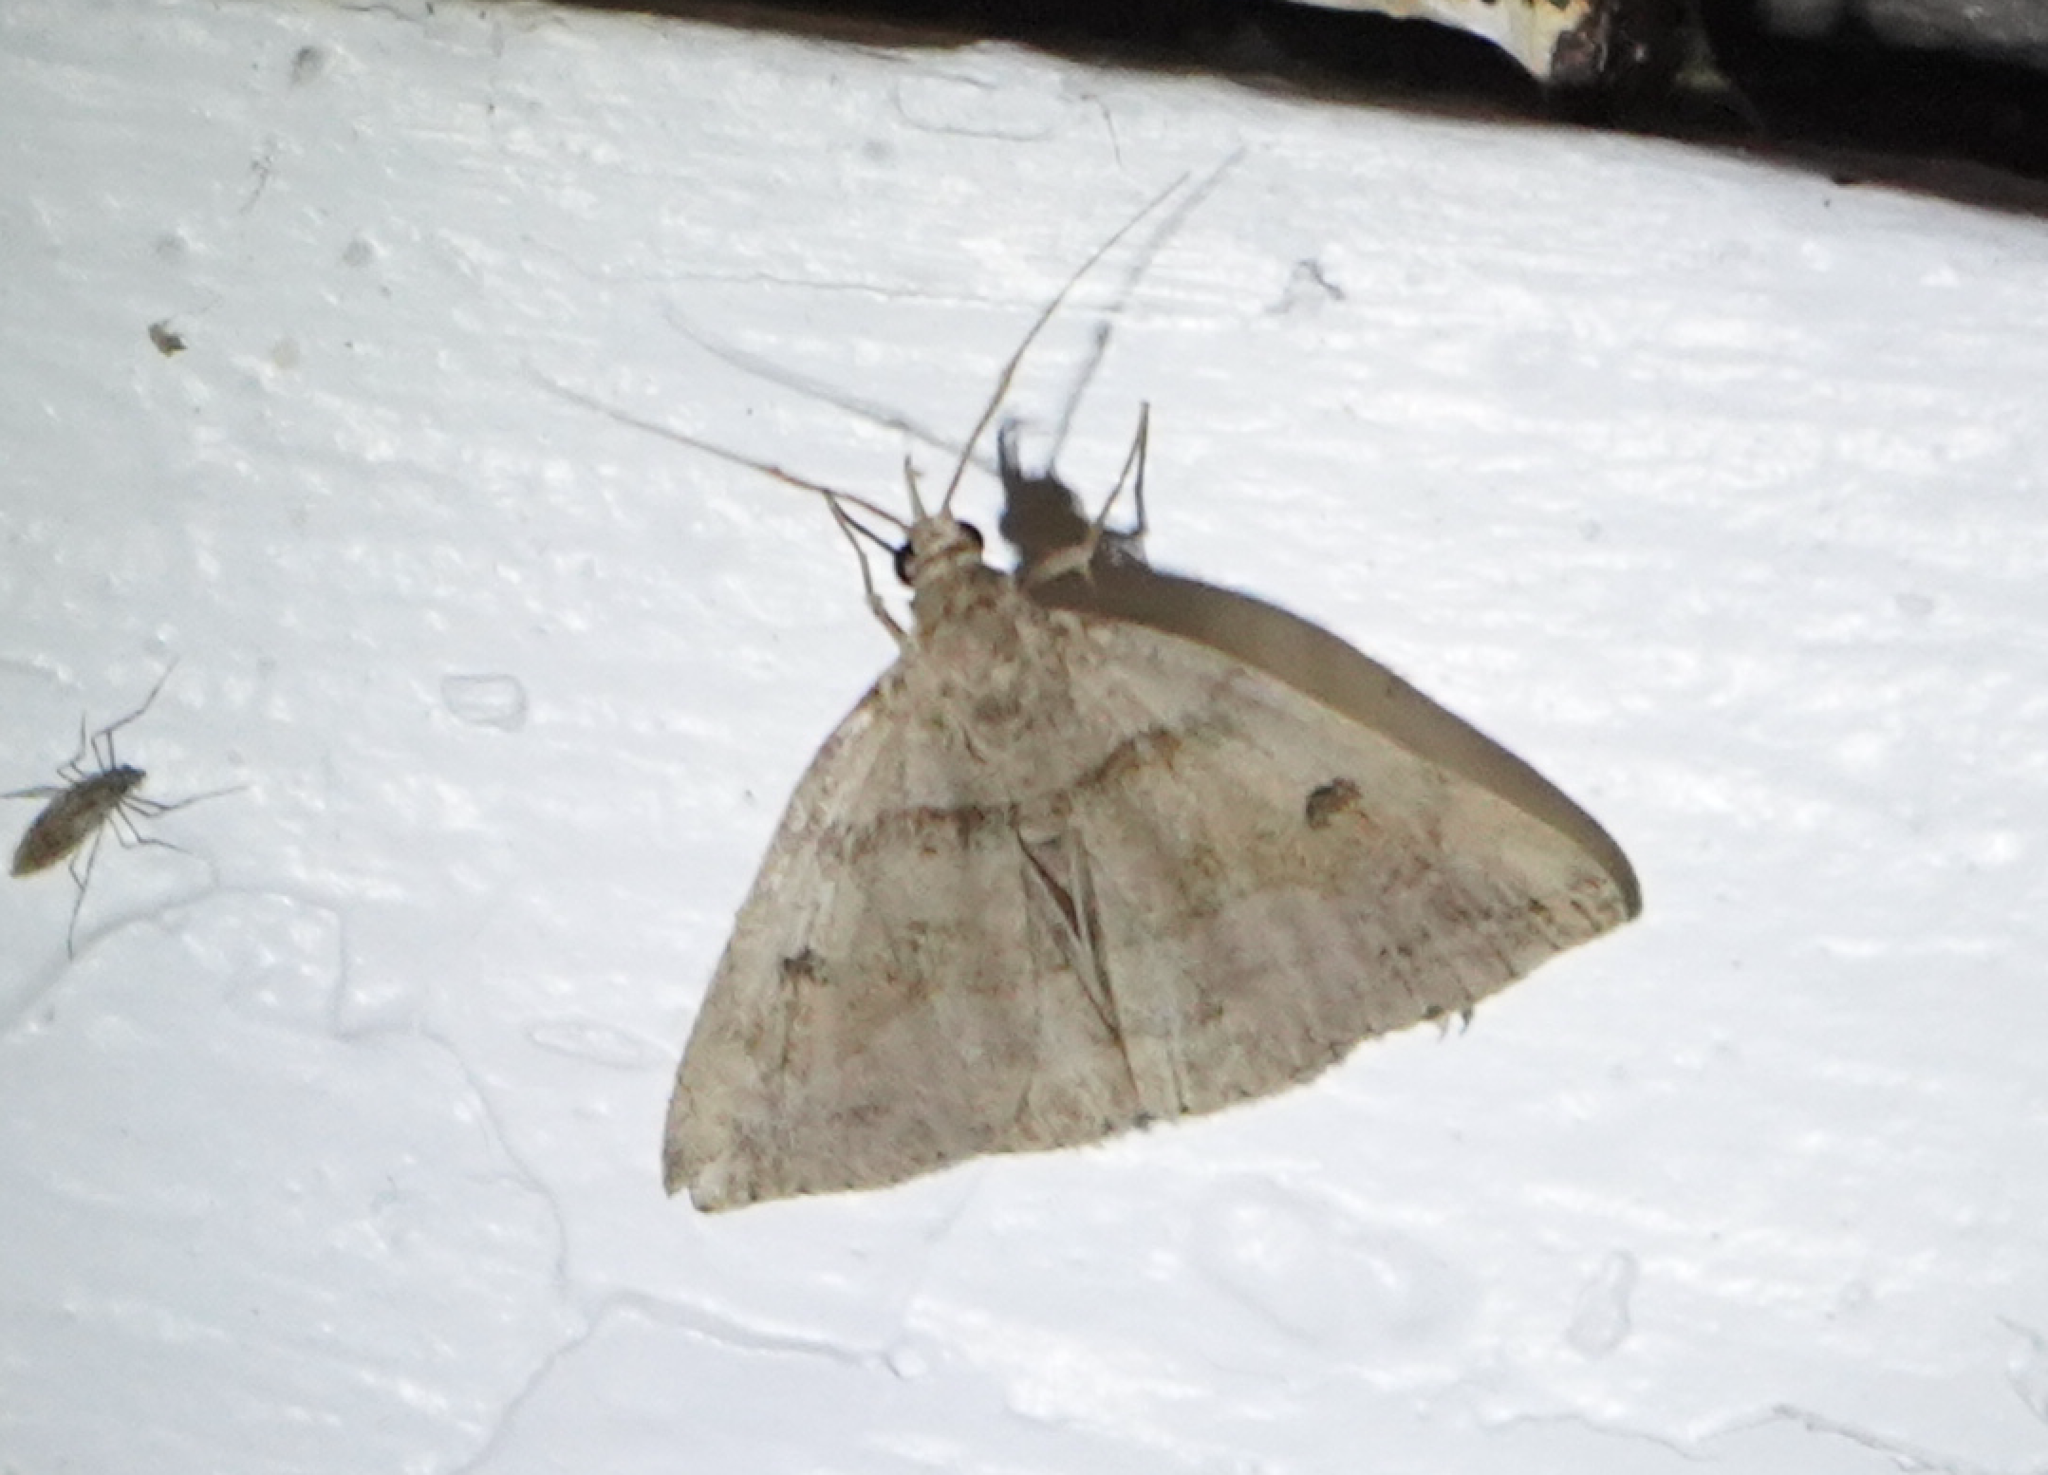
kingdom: Animalia
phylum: Arthropoda
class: Insecta
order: Lepidoptera
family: Erebidae
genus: Zanclognatha
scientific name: Zanclognatha laevigata
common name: Variable fan-foot
